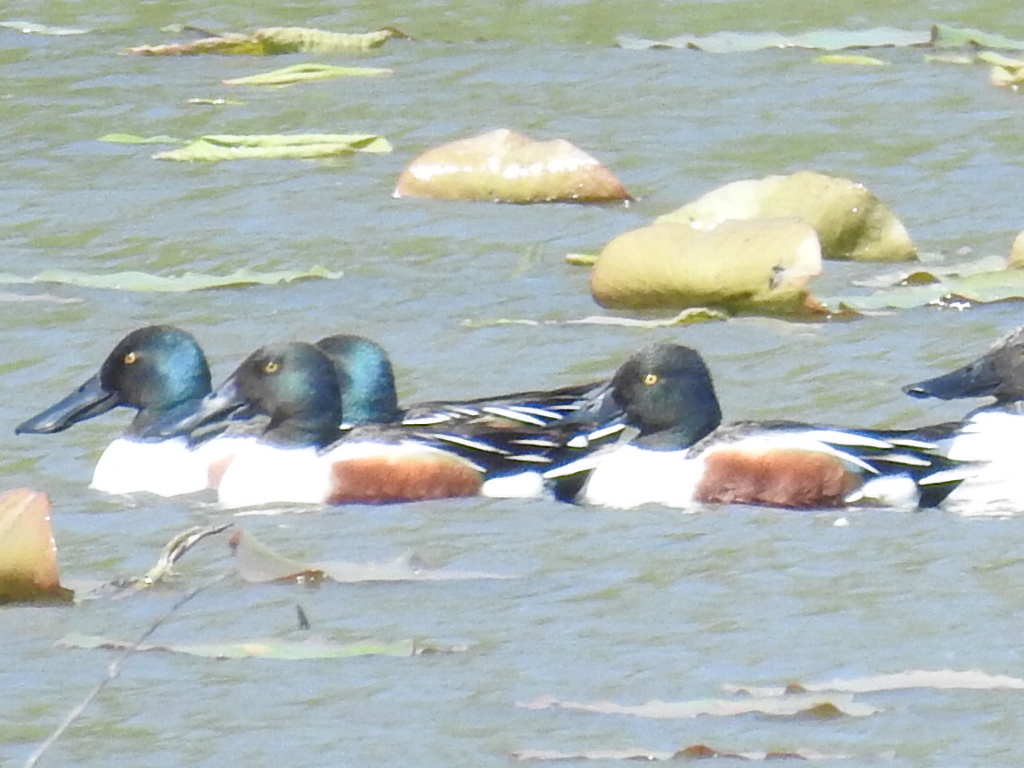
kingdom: Animalia
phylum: Chordata
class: Aves
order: Anseriformes
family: Anatidae
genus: Spatula
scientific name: Spatula clypeata
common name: Northern shoveler
